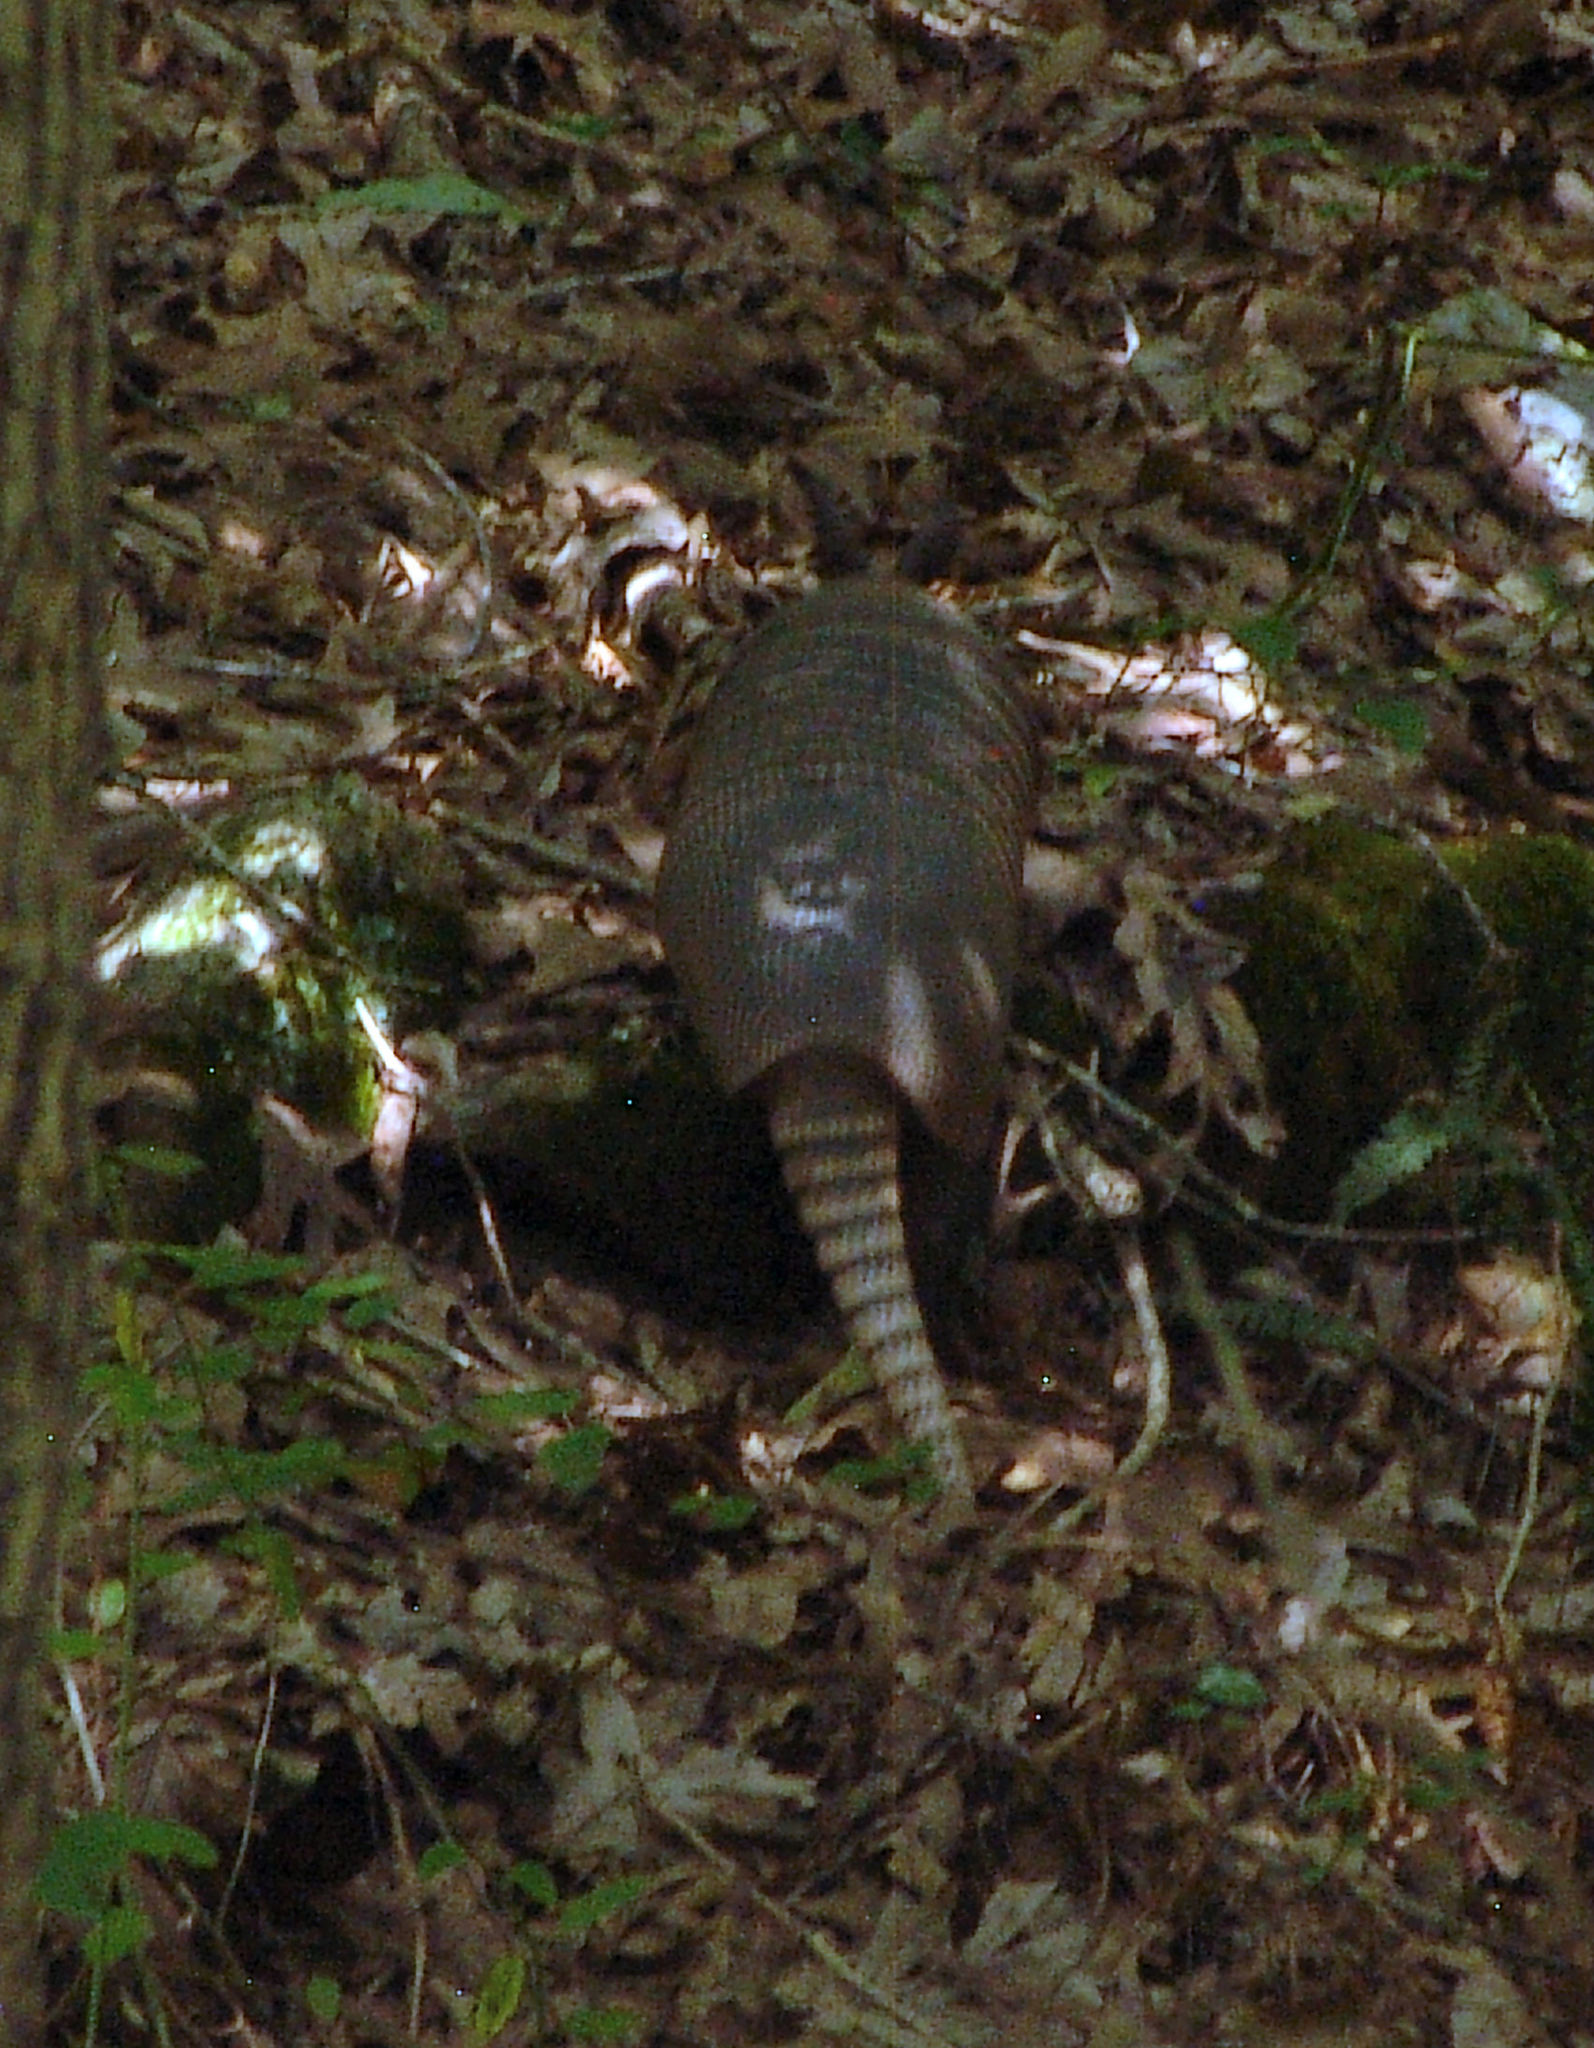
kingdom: Animalia
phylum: Chordata
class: Mammalia
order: Cingulata
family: Dasypodidae
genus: Dasypus
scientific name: Dasypus novemcinctus
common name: Nine-banded armadillo
